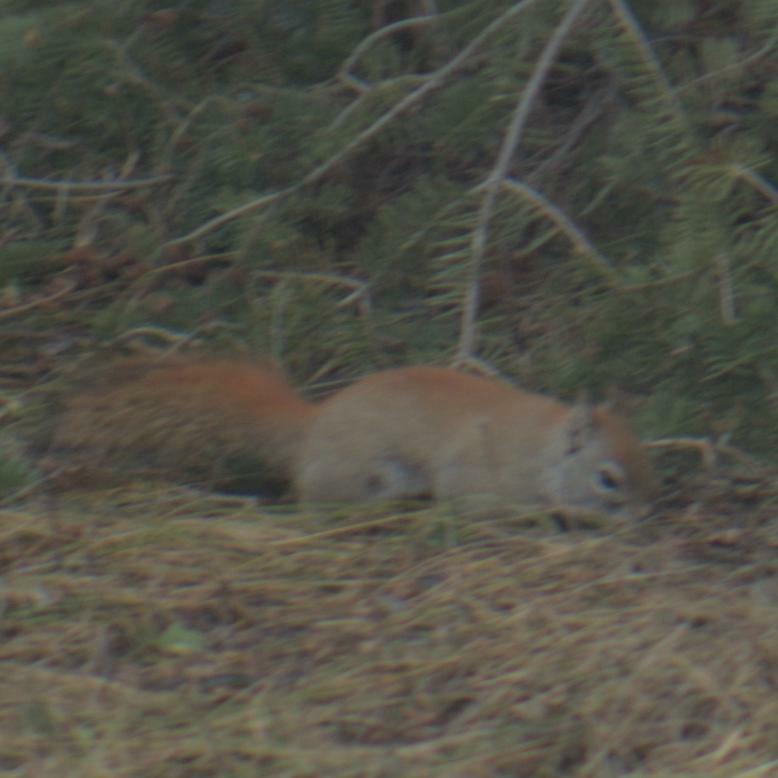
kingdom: Animalia
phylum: Chordata
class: Mammalia
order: Rodentia
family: Sciuridae
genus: Tamiasciurus
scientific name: Tamiasciurus hudsonicus
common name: Red squirrel
